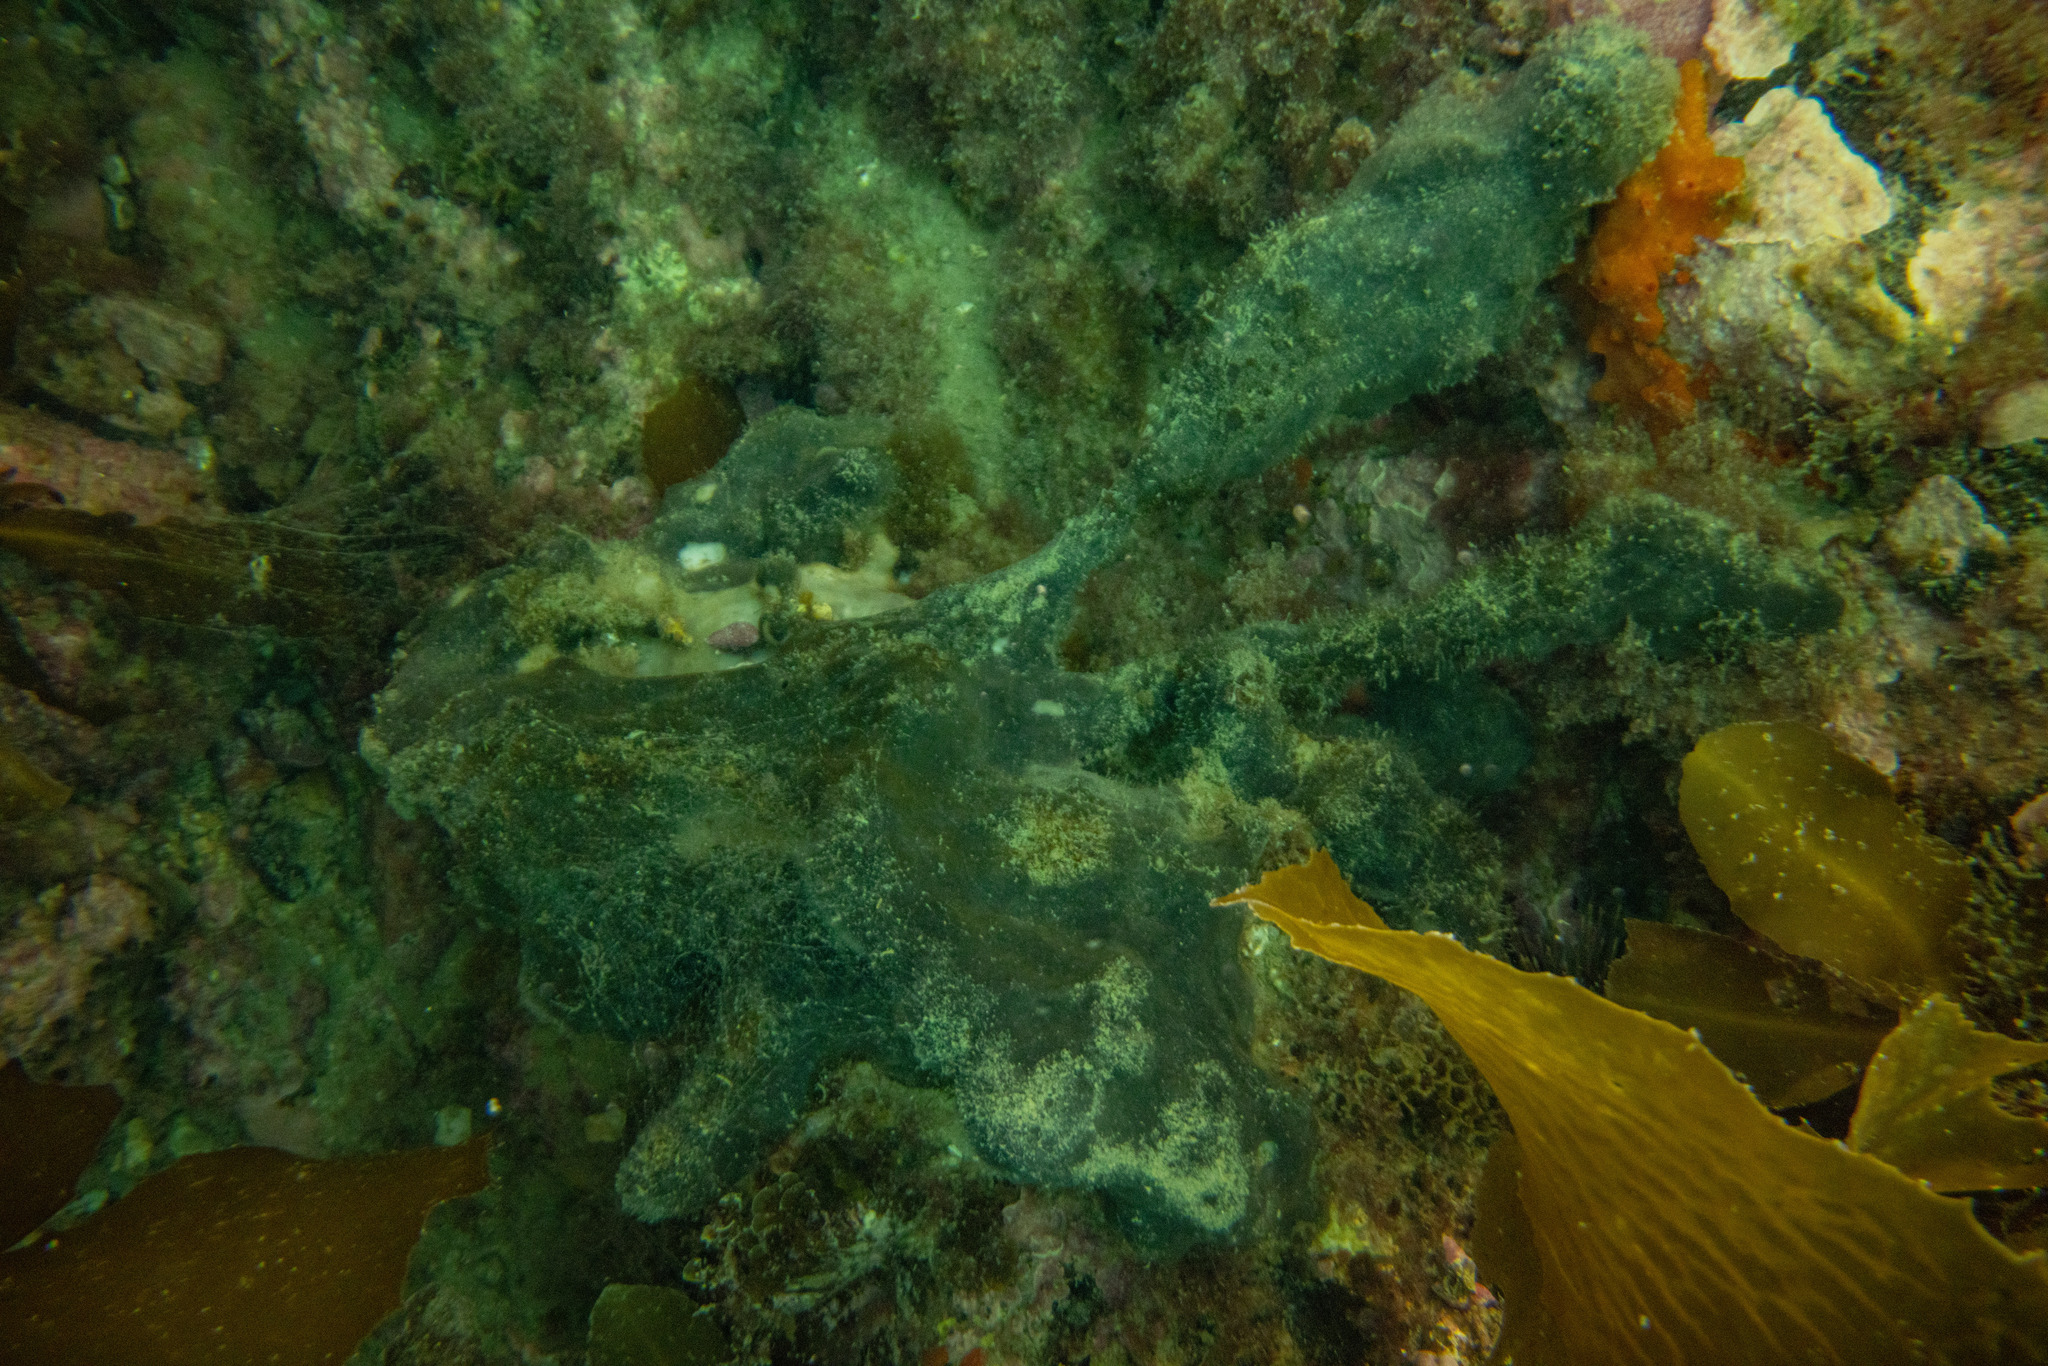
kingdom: Animalia
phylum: Porifera
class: Demospongiae
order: Tetractinellida
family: Ancorinidae
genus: Ecionemia
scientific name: Ecionemia alata
